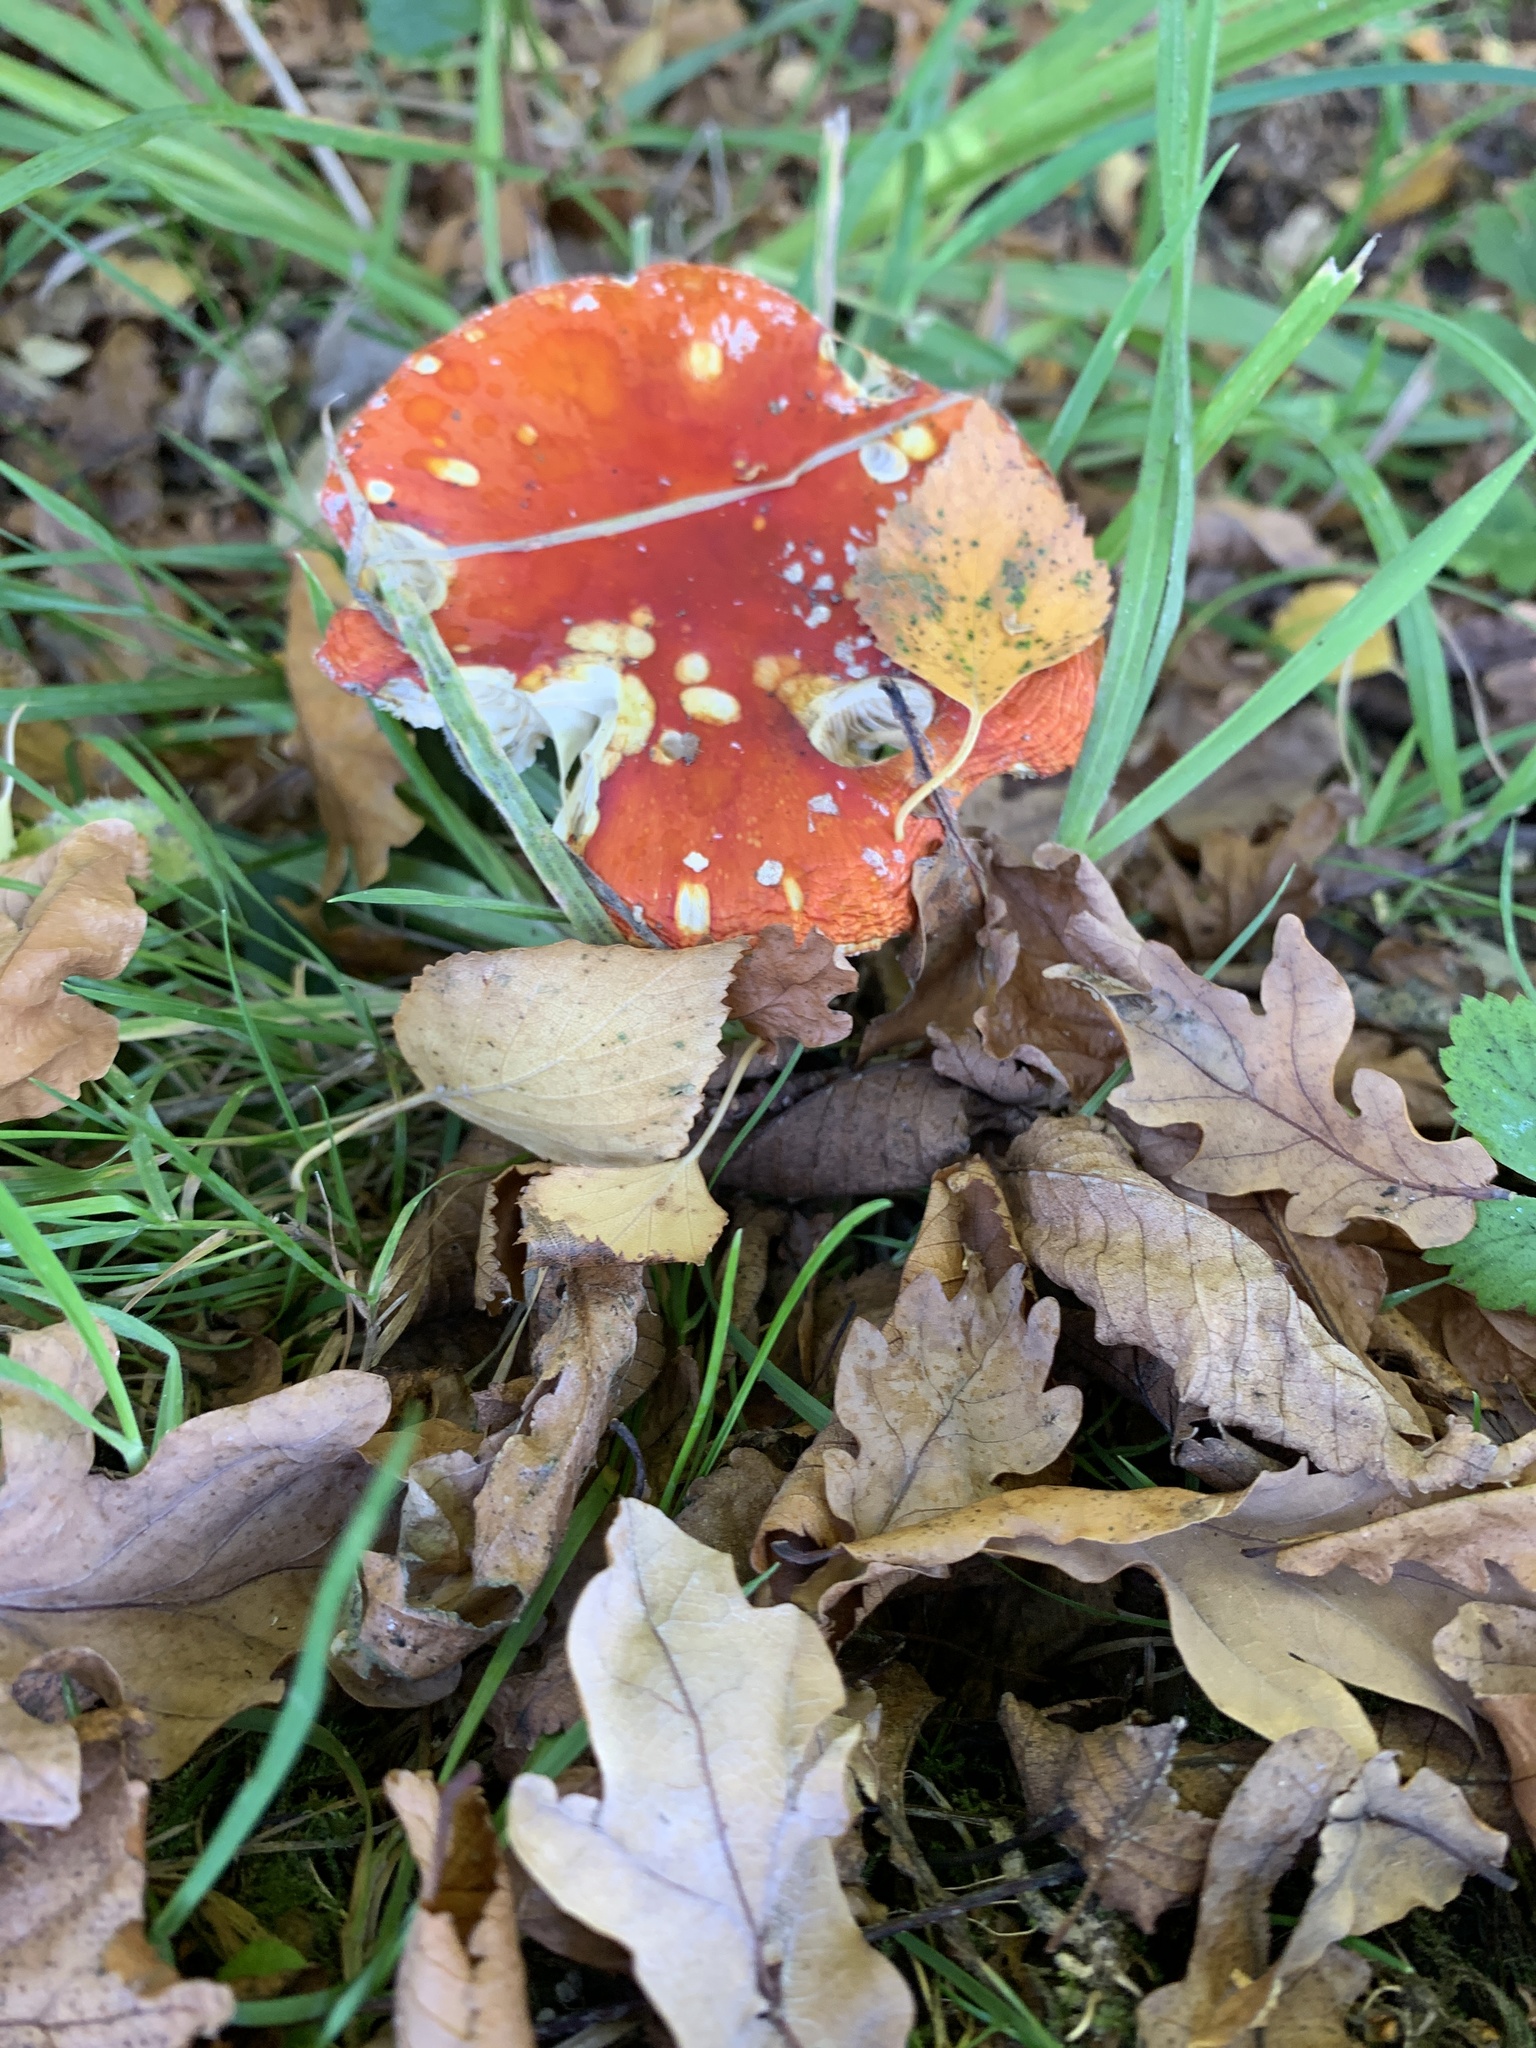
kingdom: Fungi
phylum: Basidiomycota
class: Agaricomycetes
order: Agaricales
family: Amanitaceae
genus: Amanita
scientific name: Amanita muscaria
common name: Fly agaric
